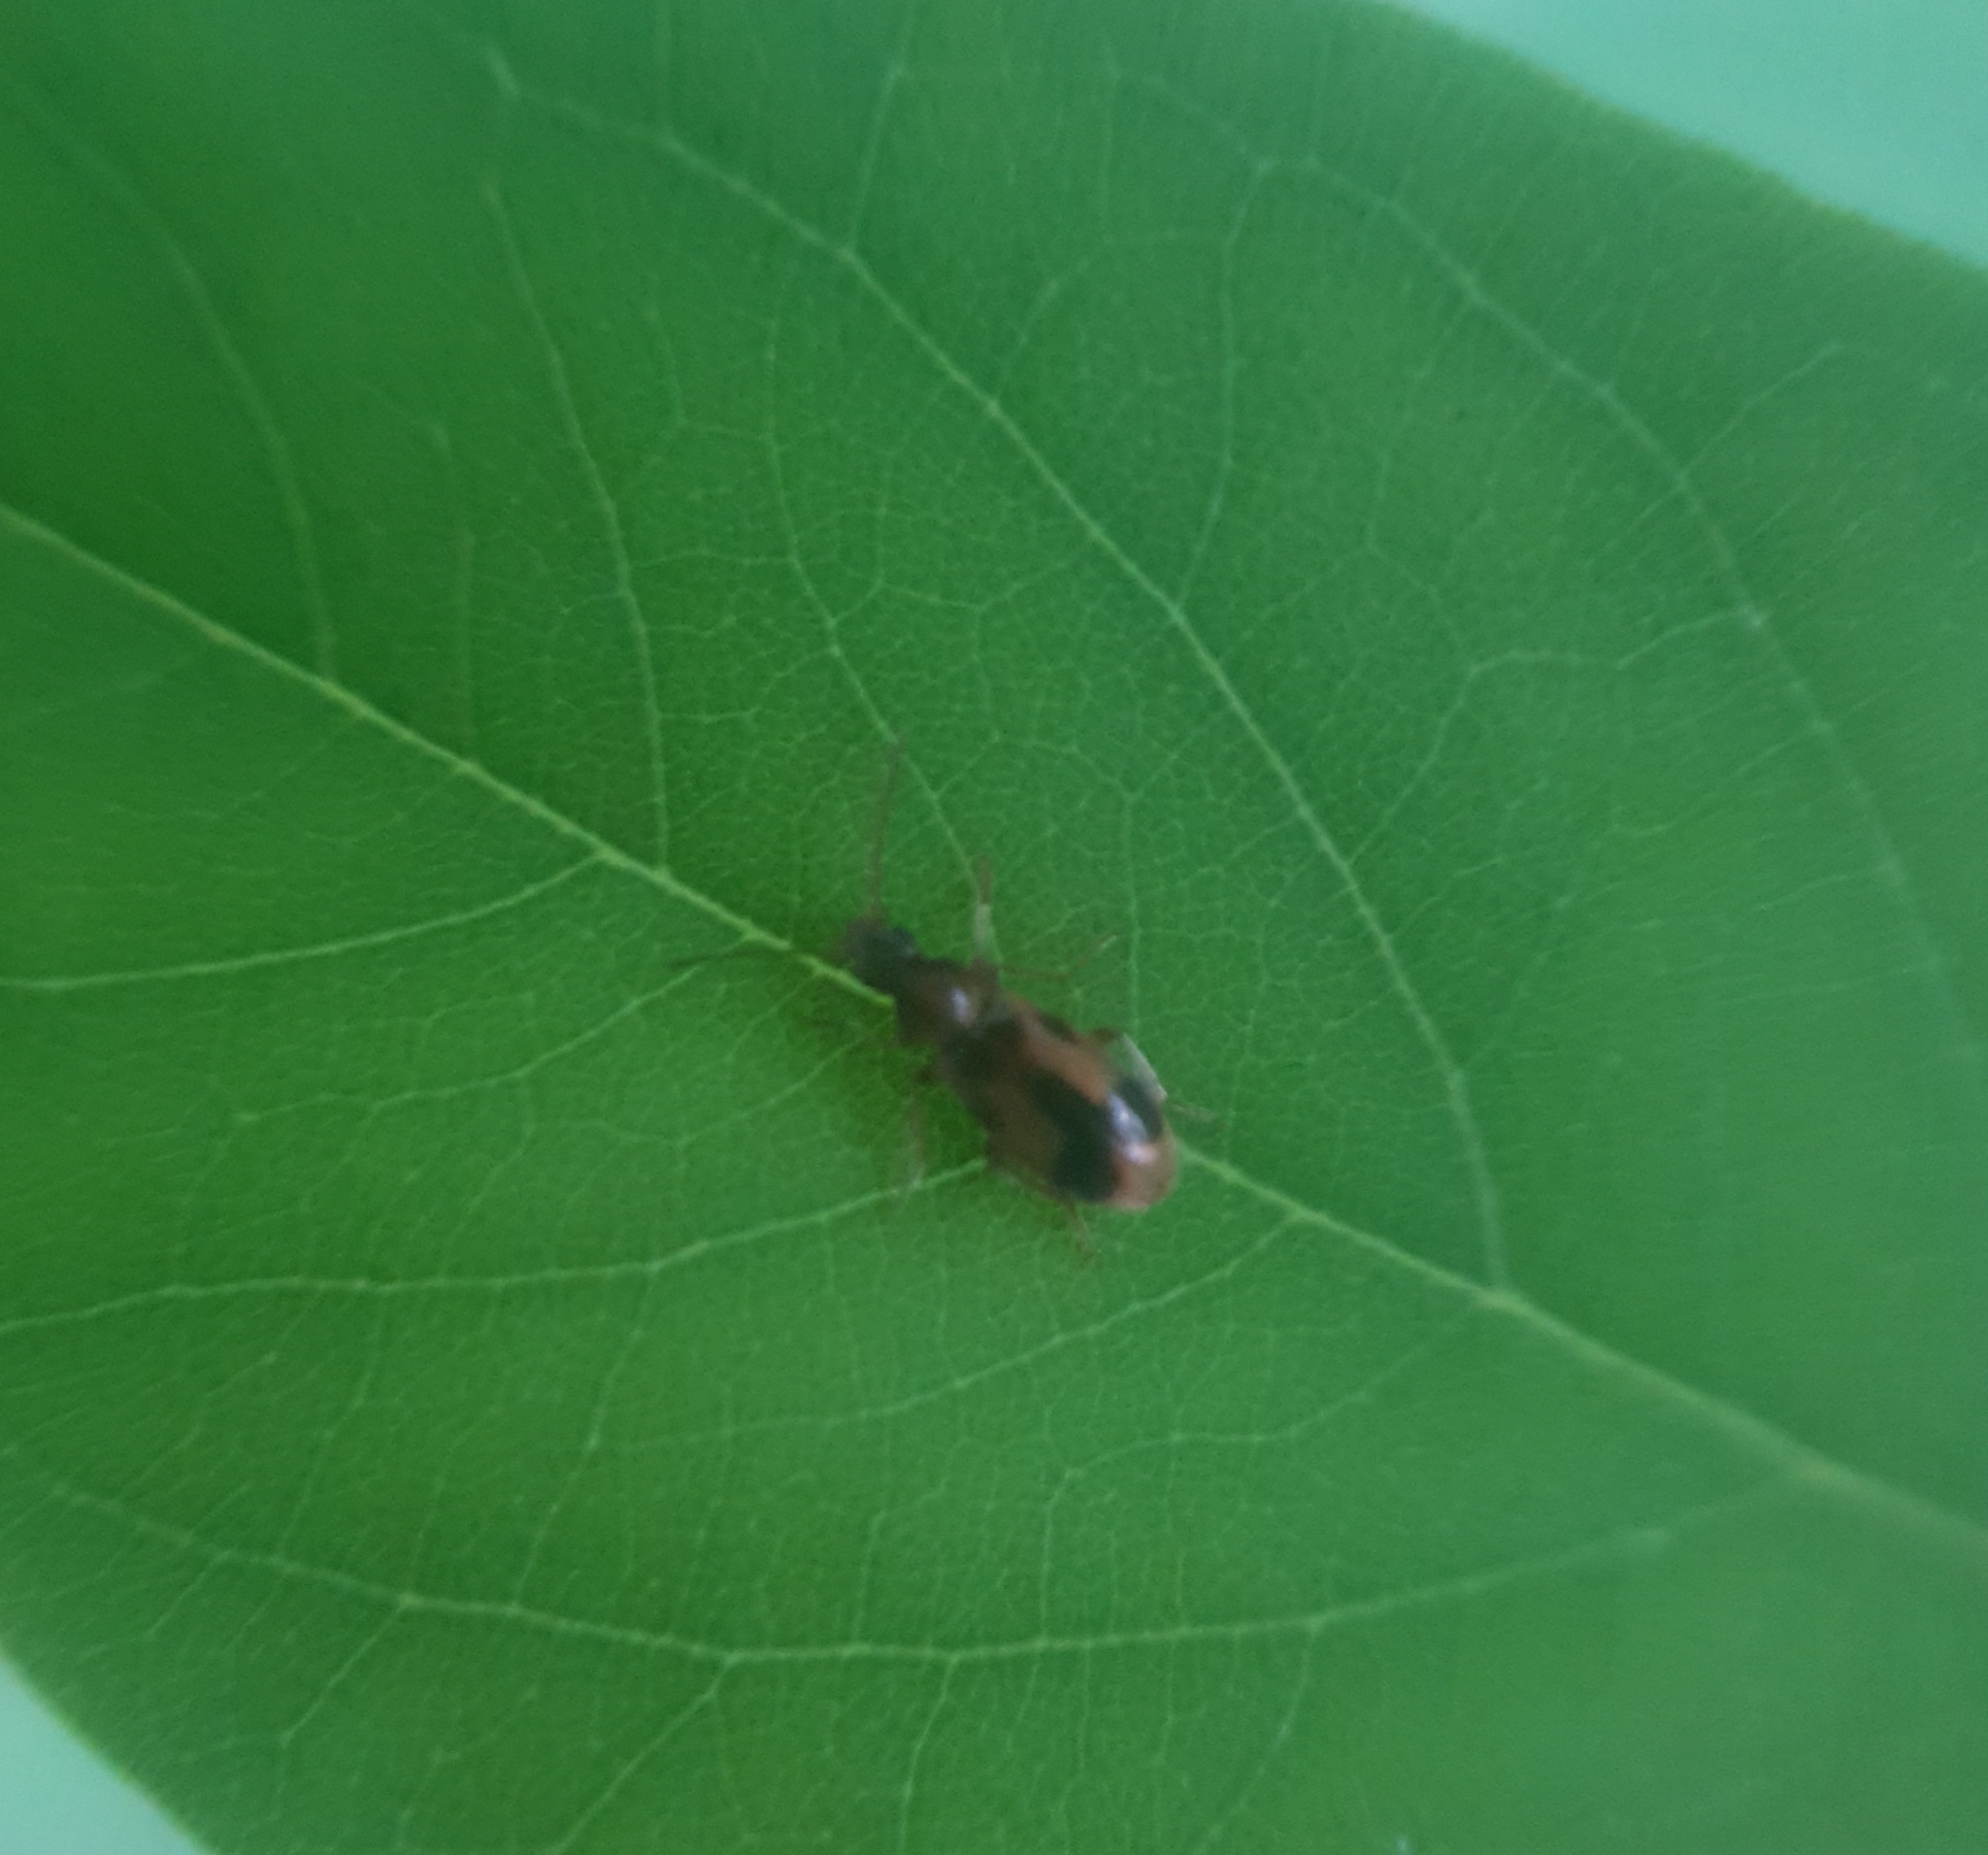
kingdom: Animalia
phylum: Arthropoda
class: Insecta
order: Coleoptera
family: Anthicidae
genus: Notoxus
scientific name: Notoxus monoceros
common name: Monoceros beetle
